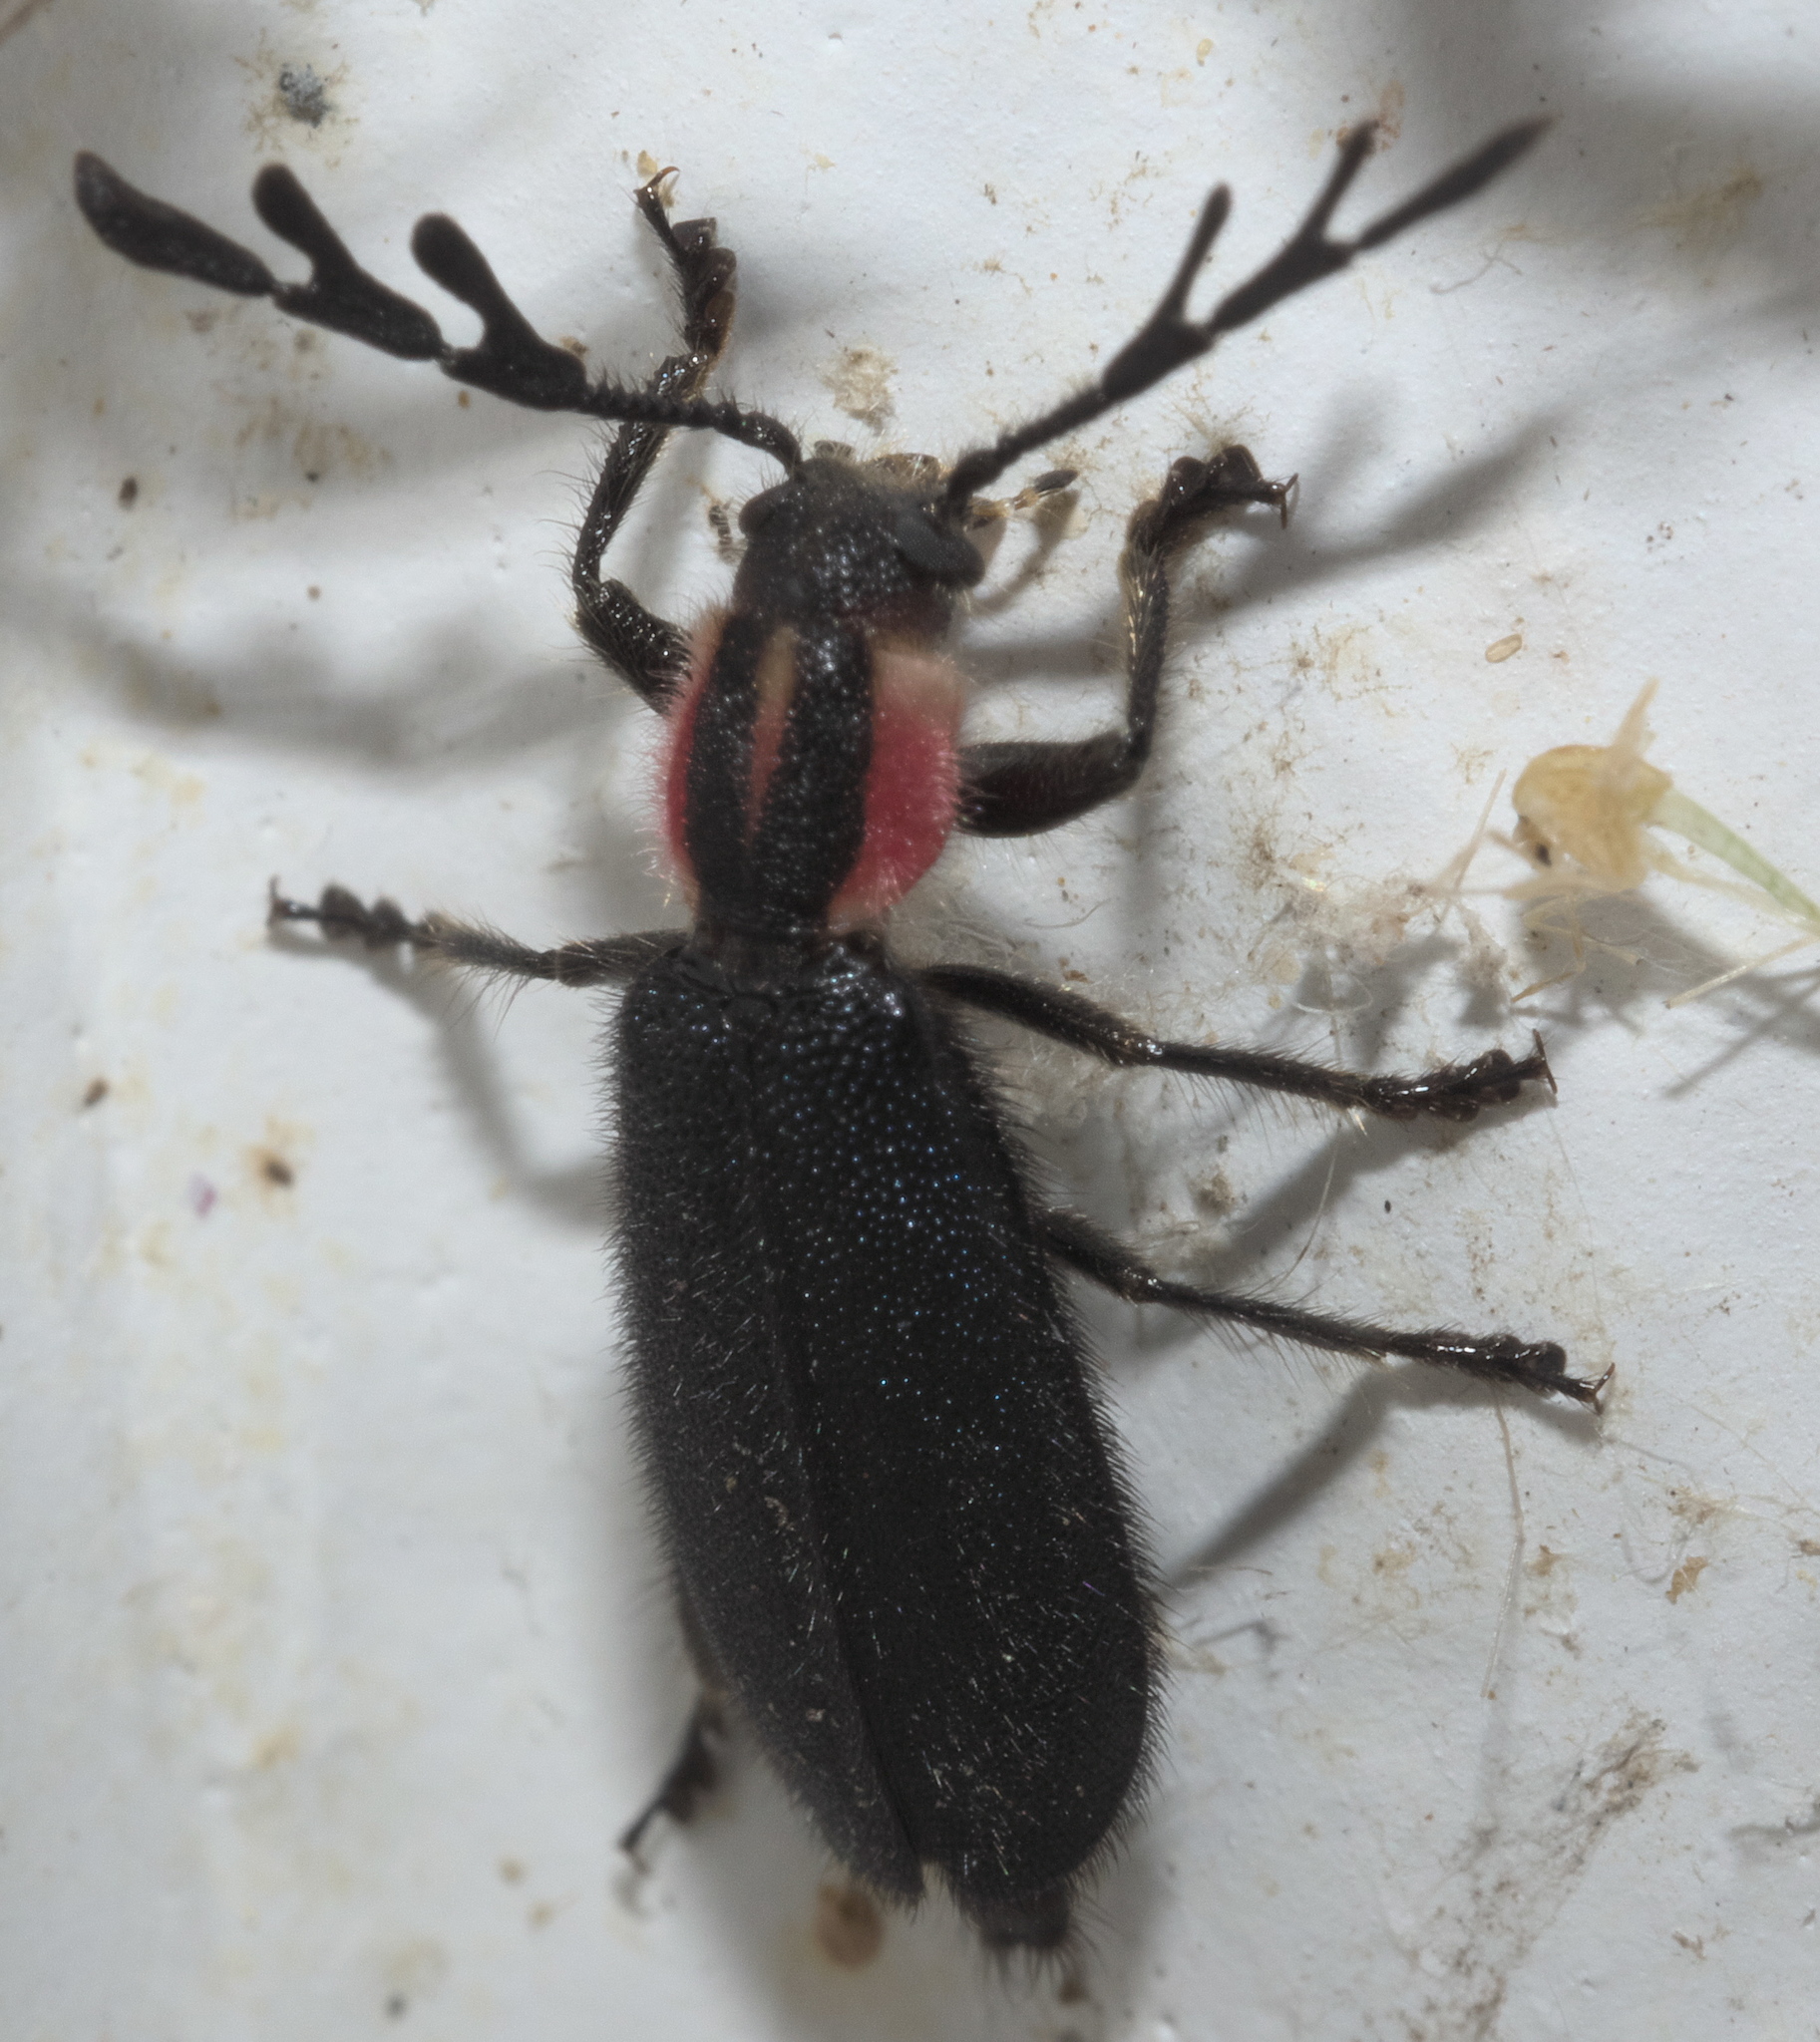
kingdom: Animalia
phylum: Arthropoda
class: Insecta
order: Coleoptera
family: Cleridae
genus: Chariessa
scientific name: Chariessa pilosa
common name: Pilose checkered beetle
